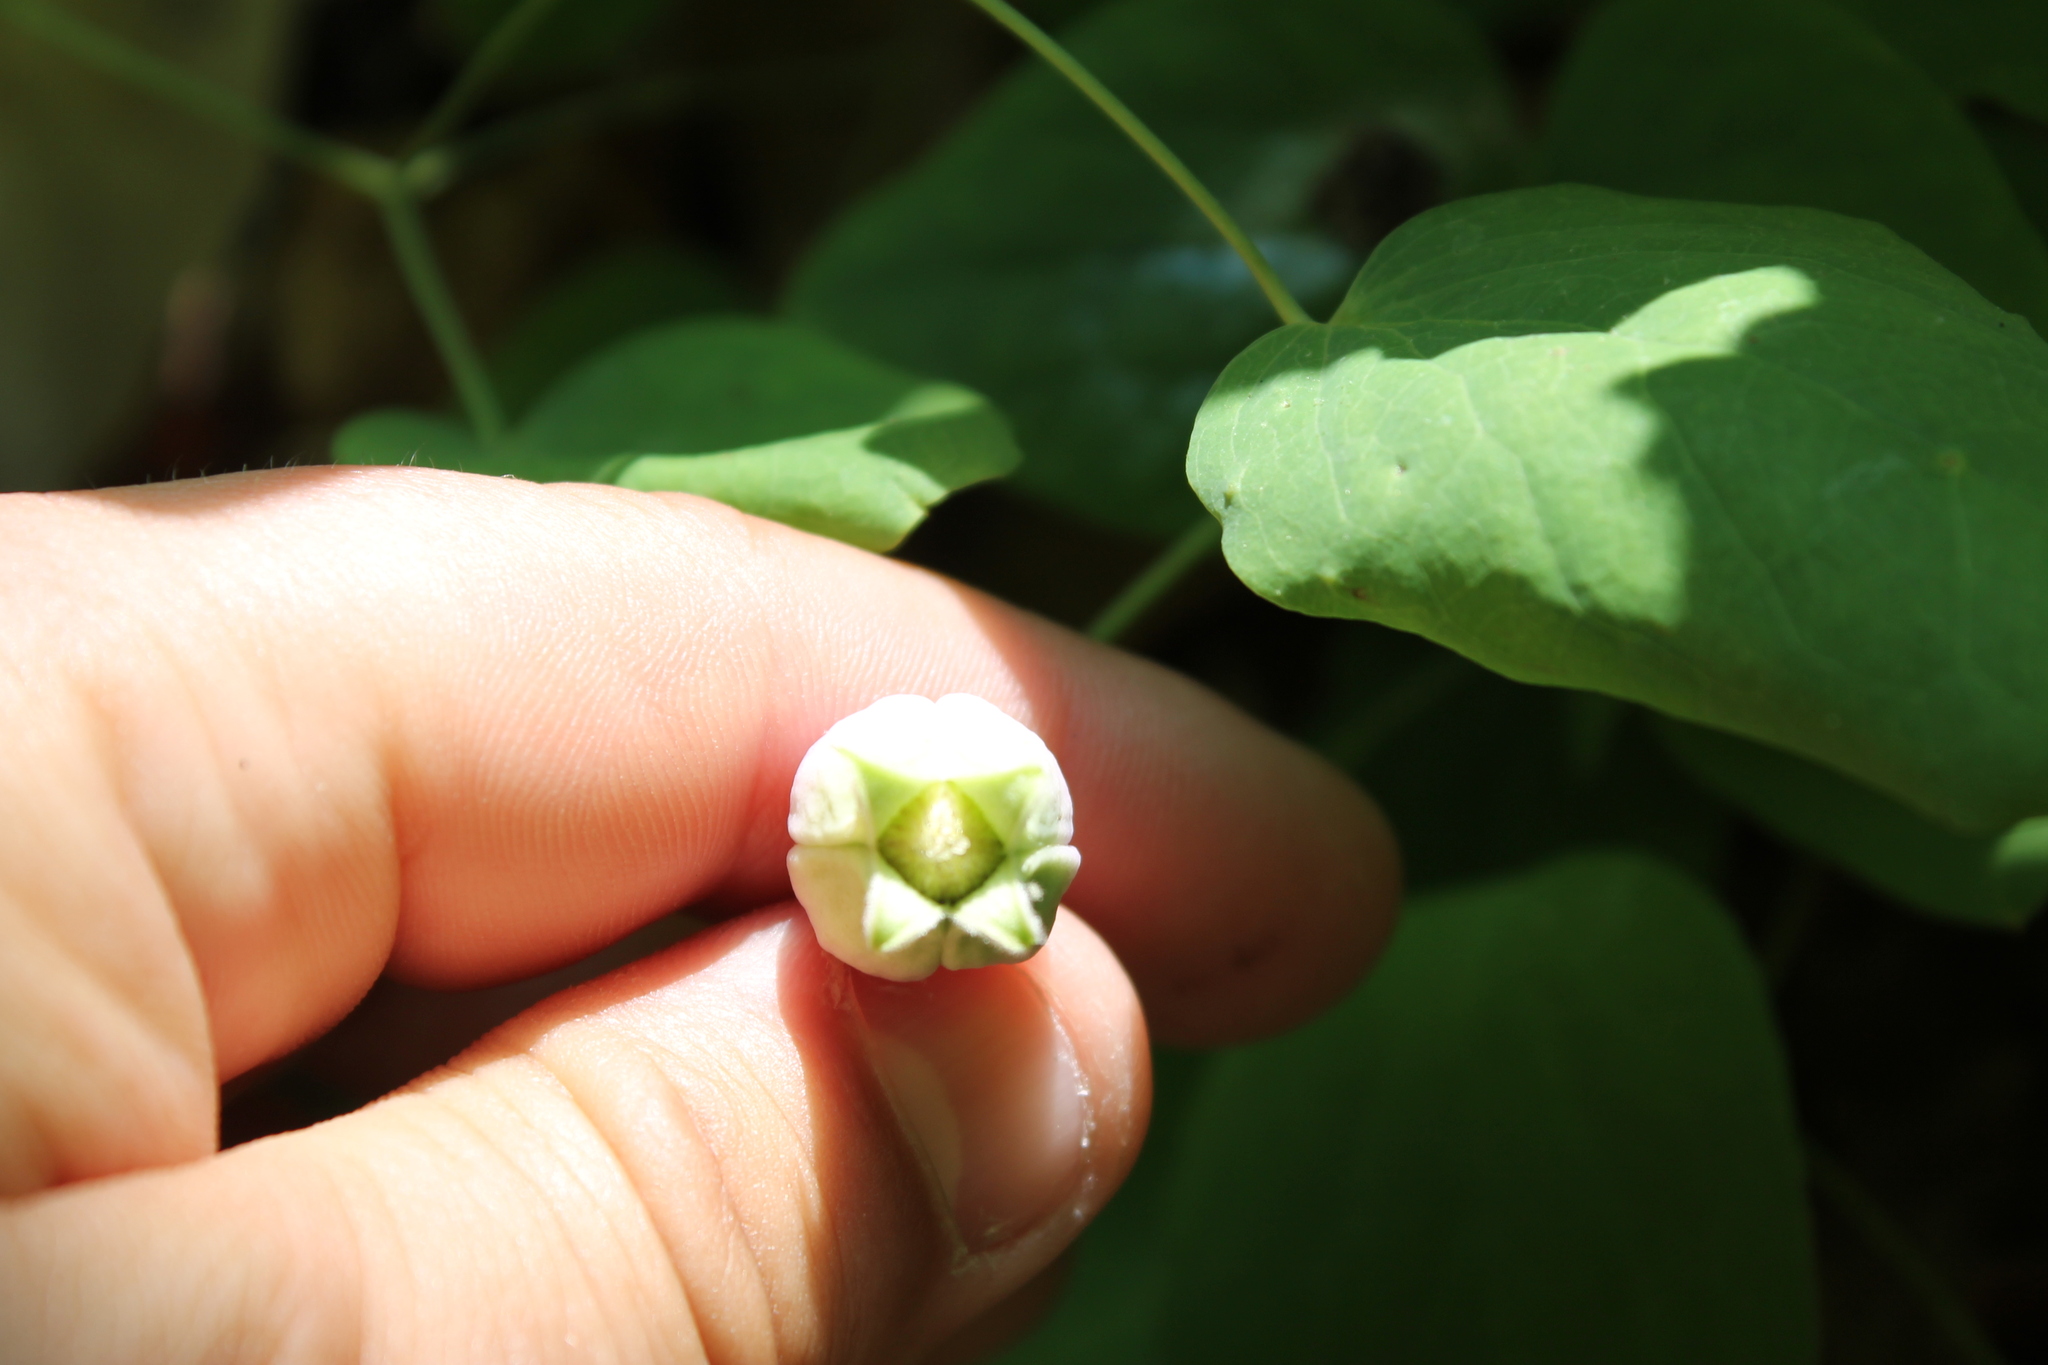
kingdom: Plantae
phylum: Tracheophyta
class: Magnoliopsida
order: Ranunculales
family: Ranunculaceae
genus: Clematis
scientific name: Clematis versicolor
